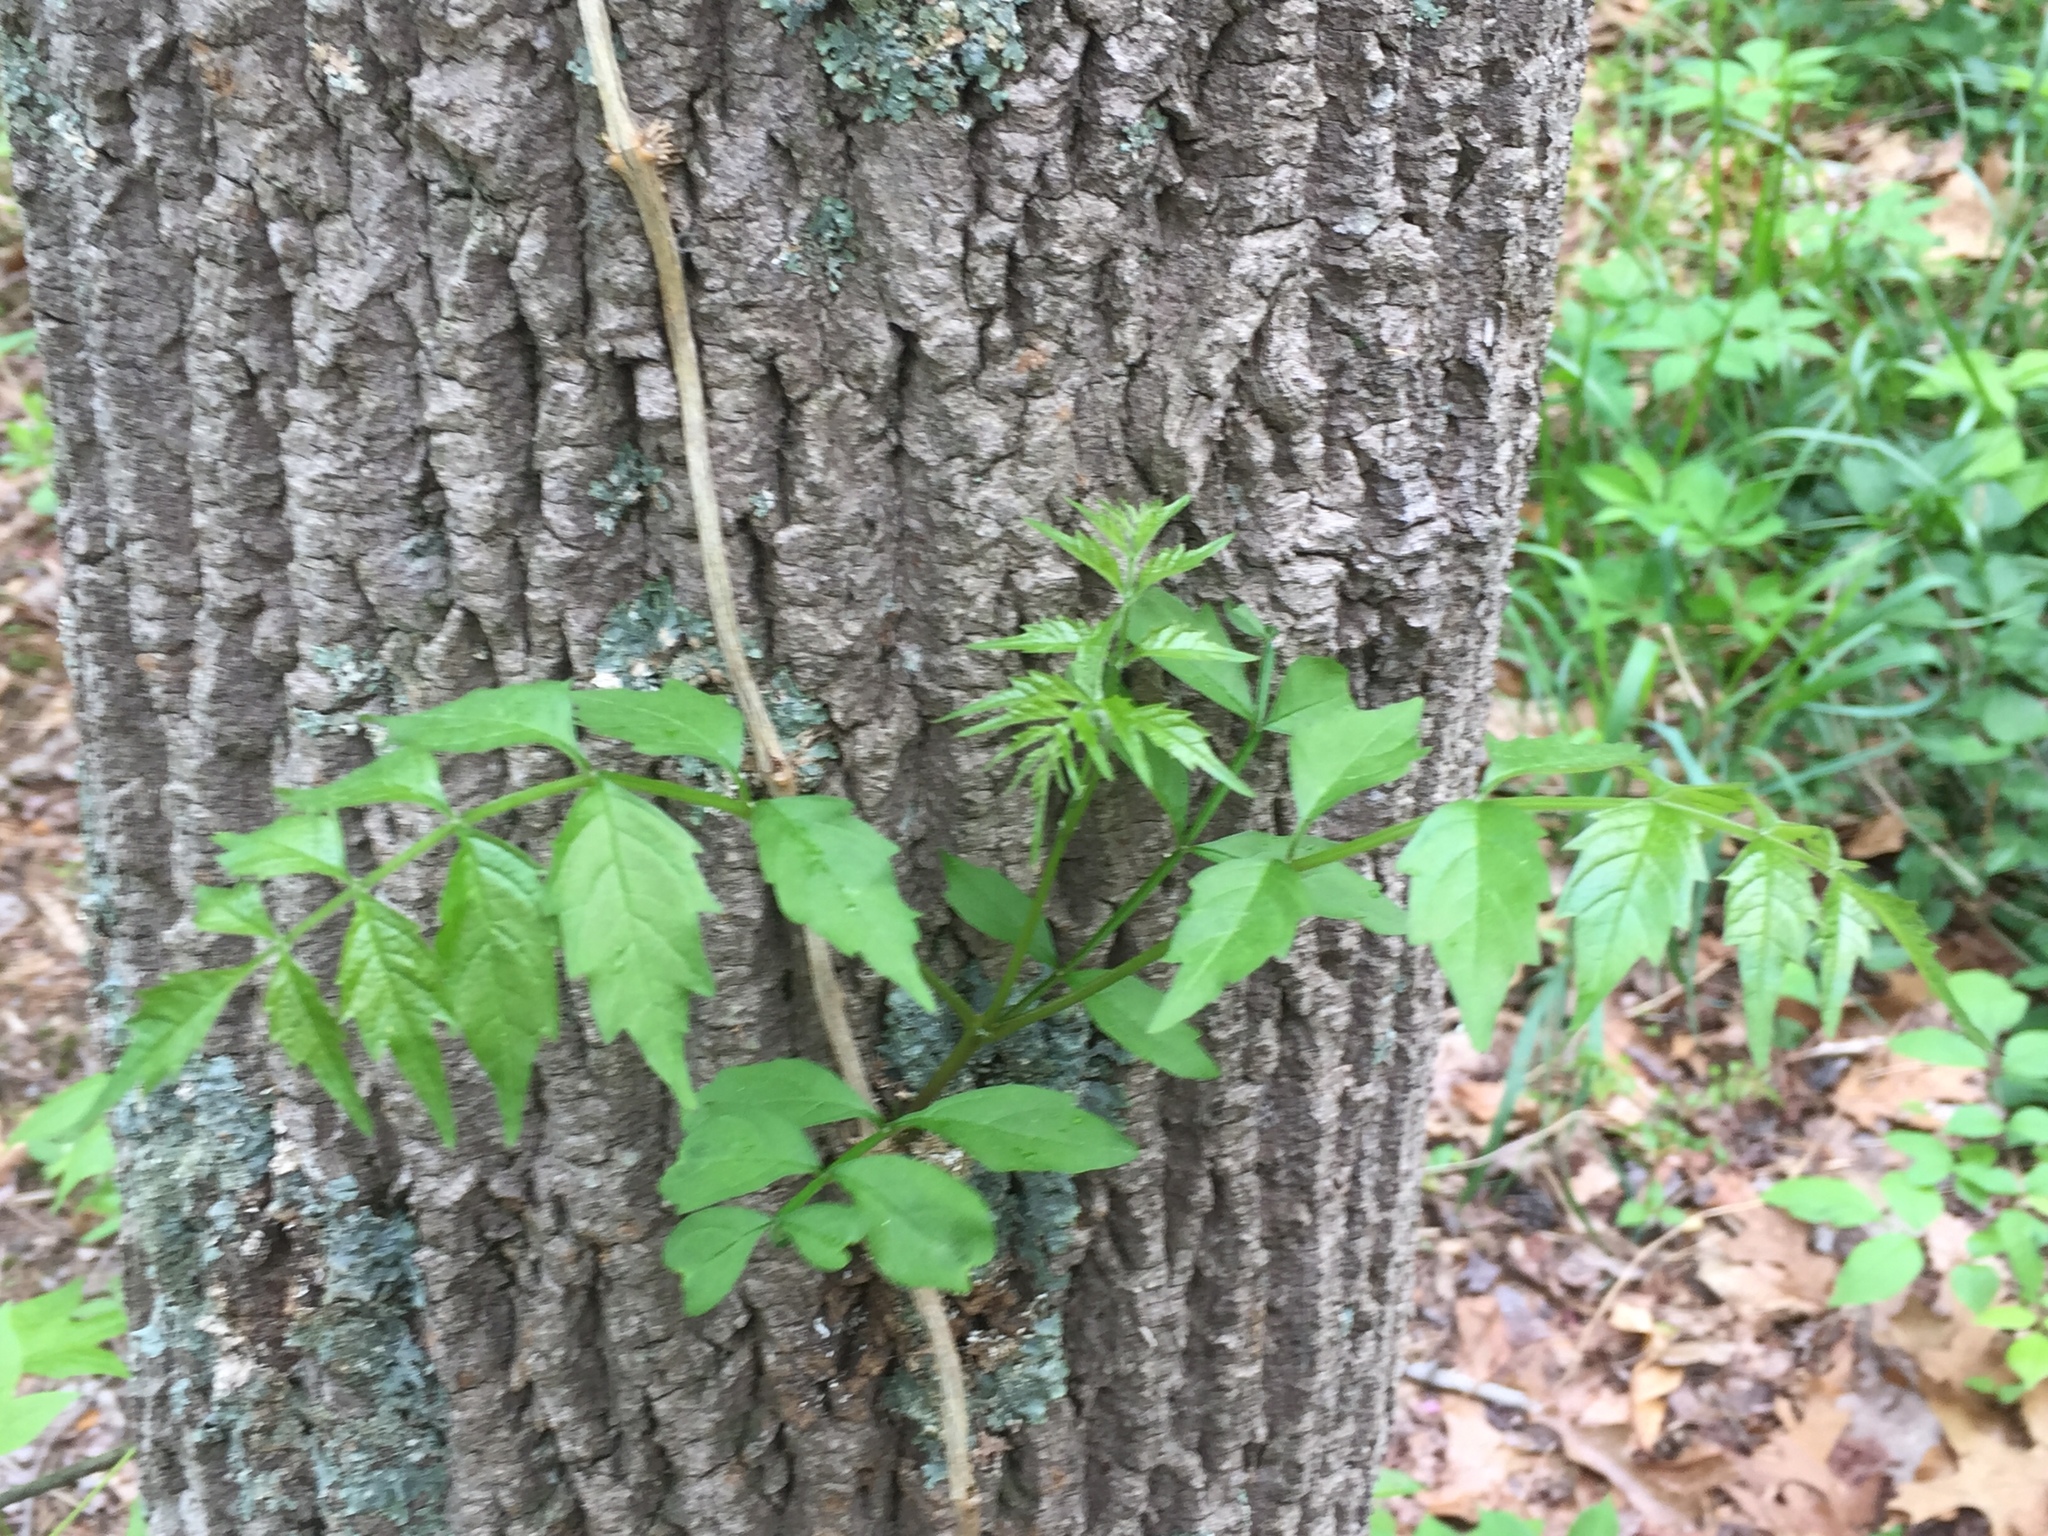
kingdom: Plantae
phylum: Tracheophyta
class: Magnoliopsida
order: Lamiales
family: Bignoniaceae
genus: Campsis
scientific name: Campsis radicans
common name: Trumpet-creeper
